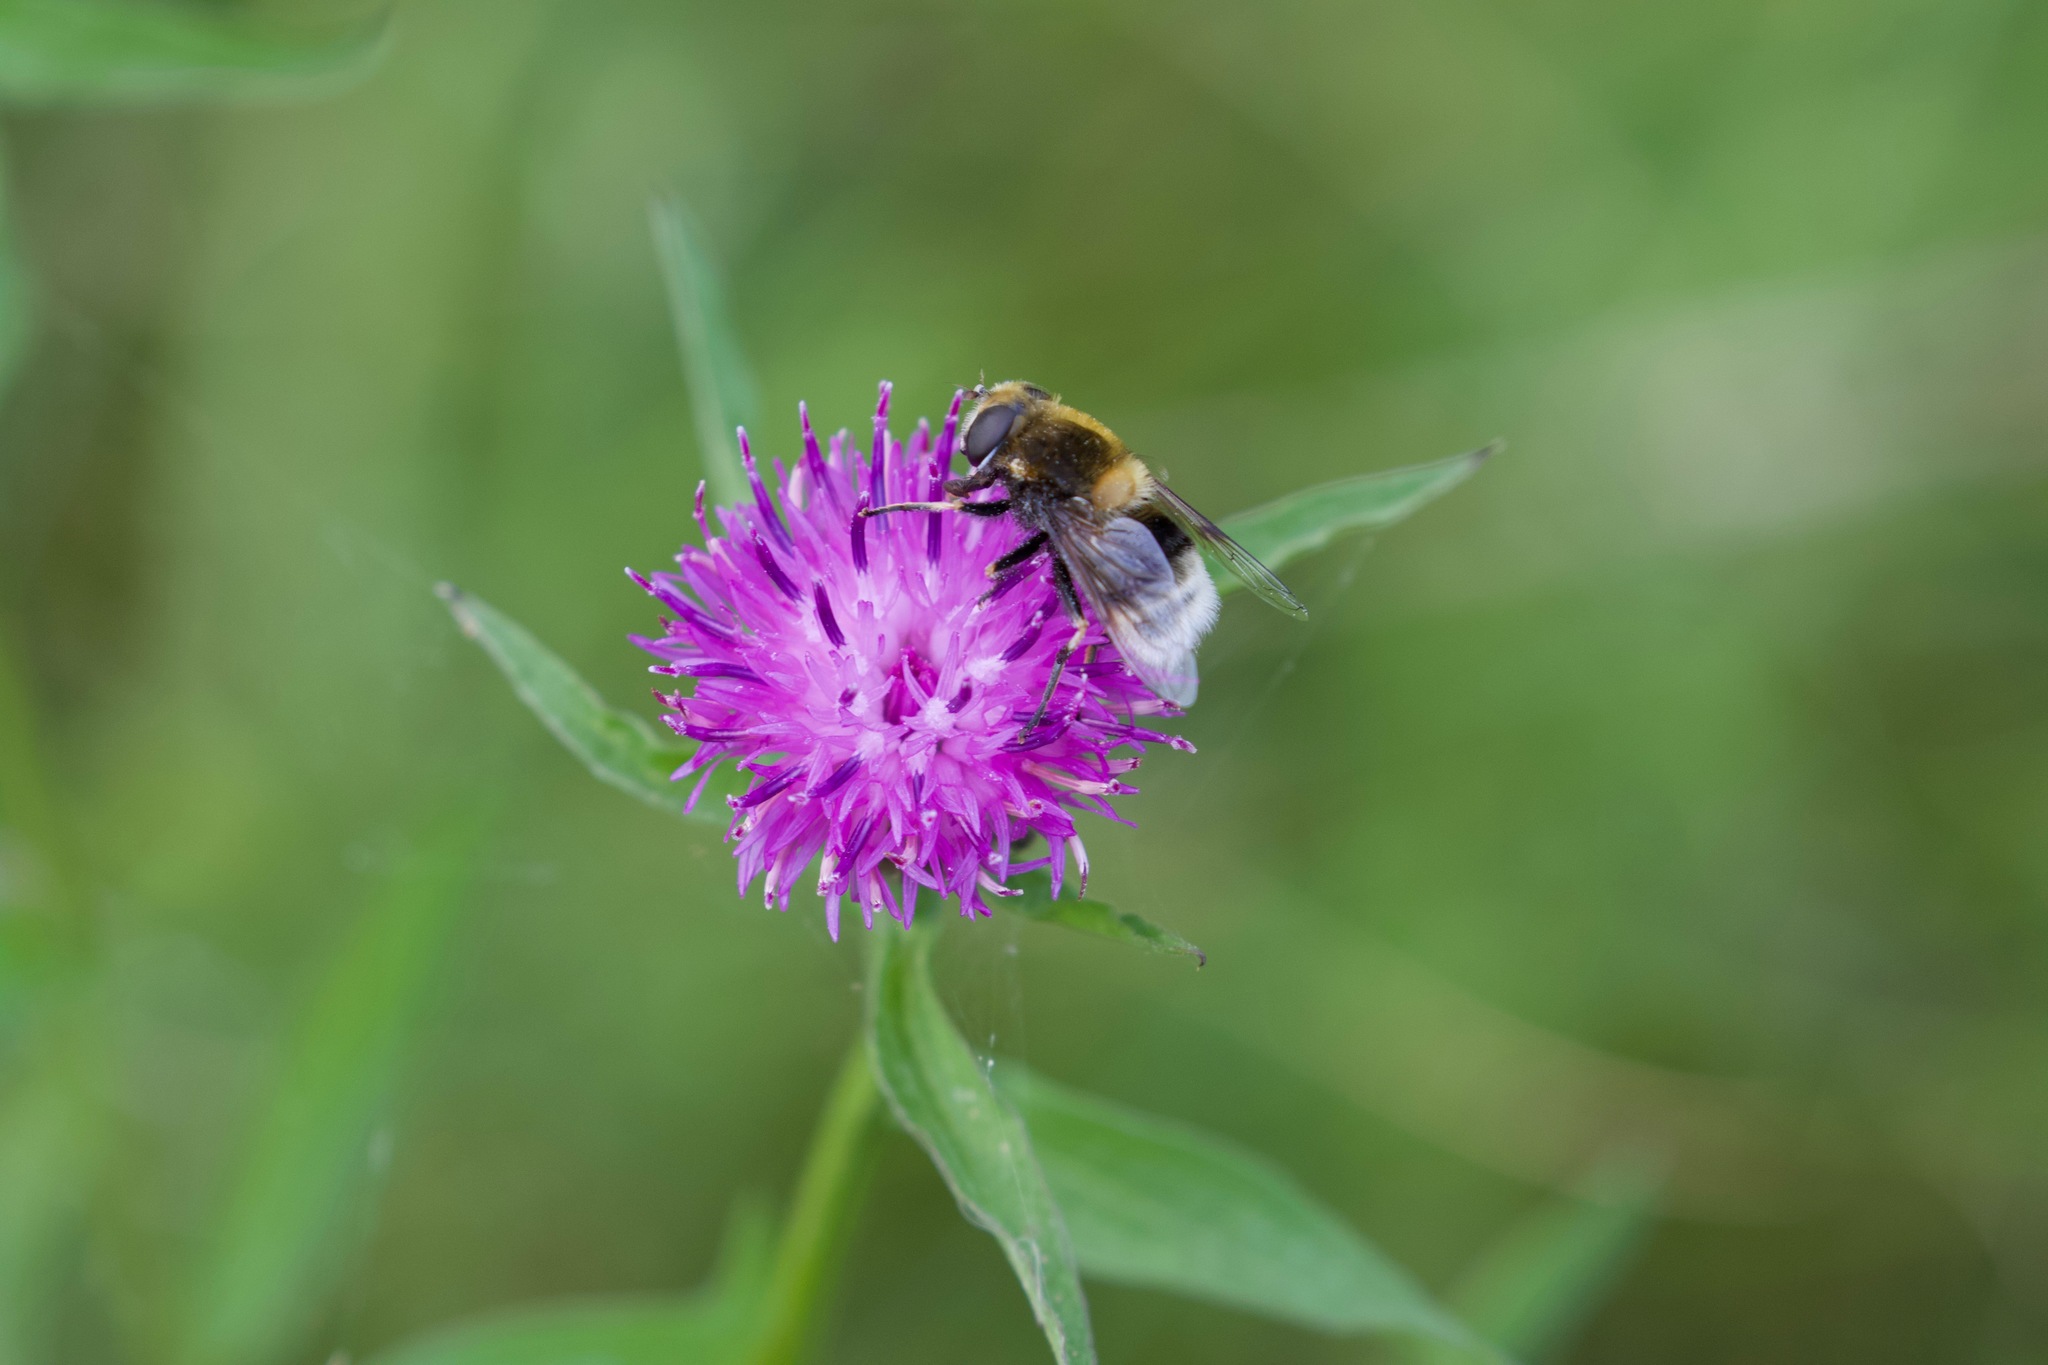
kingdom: Animalia
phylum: Arthropoda
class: Insecta
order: Diptera
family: Syrphidae
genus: Eristalis
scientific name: Eristalis intricaria
